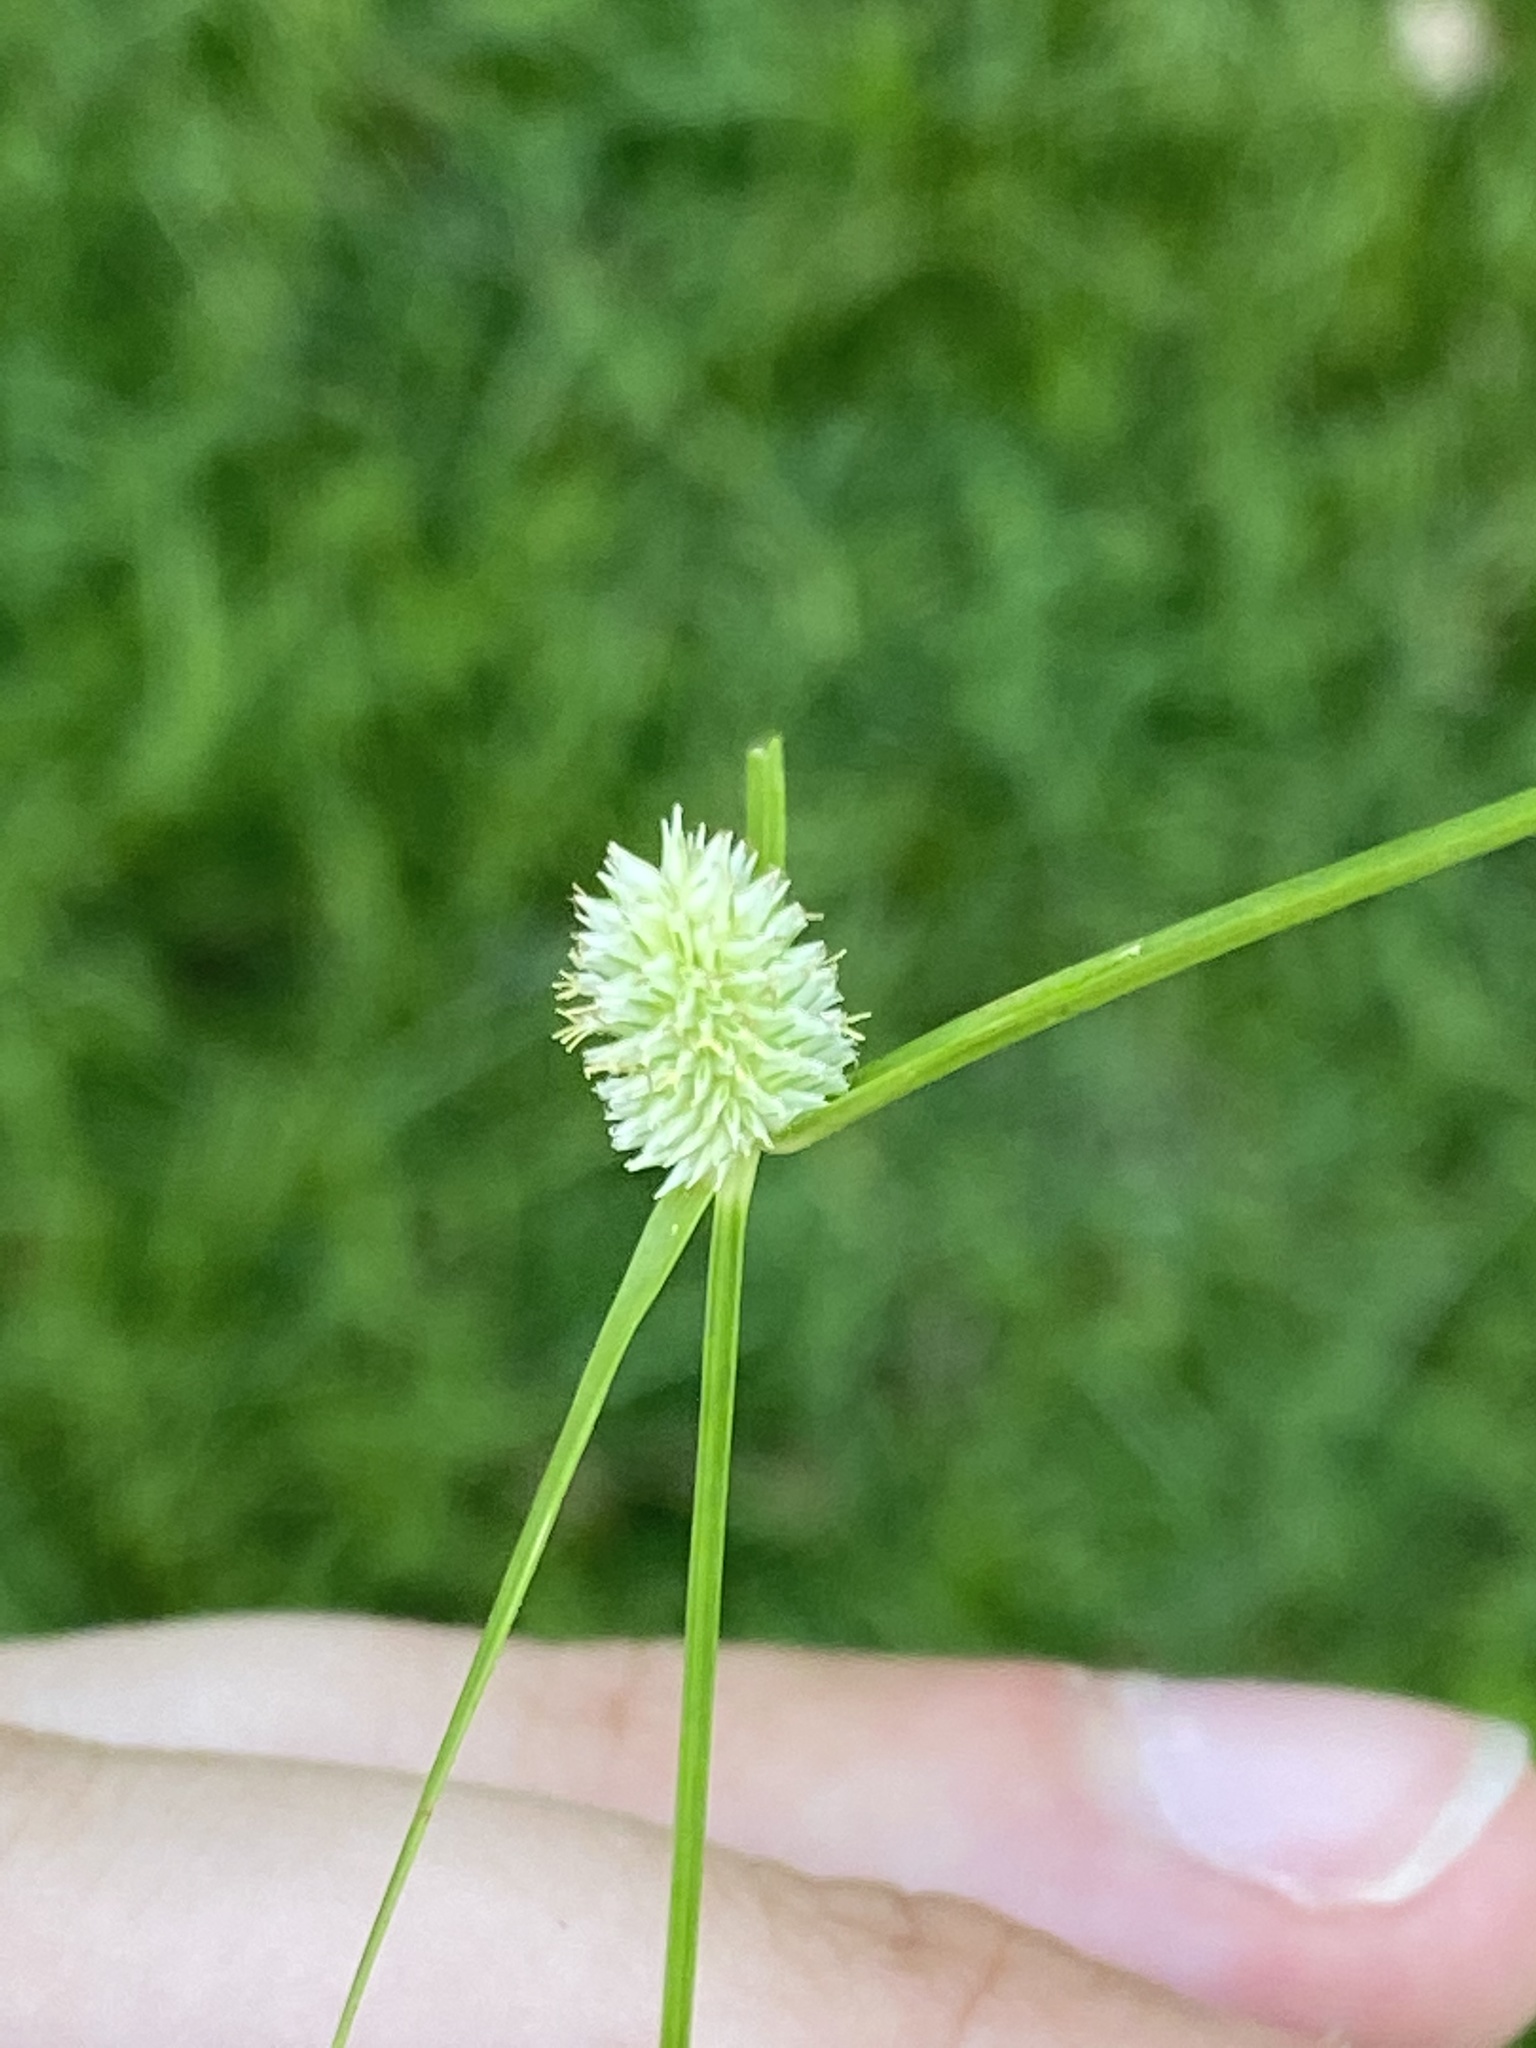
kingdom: Plantae
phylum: Tracheophyta
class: Liliopsida
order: Poales
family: Cyperaceae
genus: Cyperus
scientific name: Cyperus sesquiflorus
